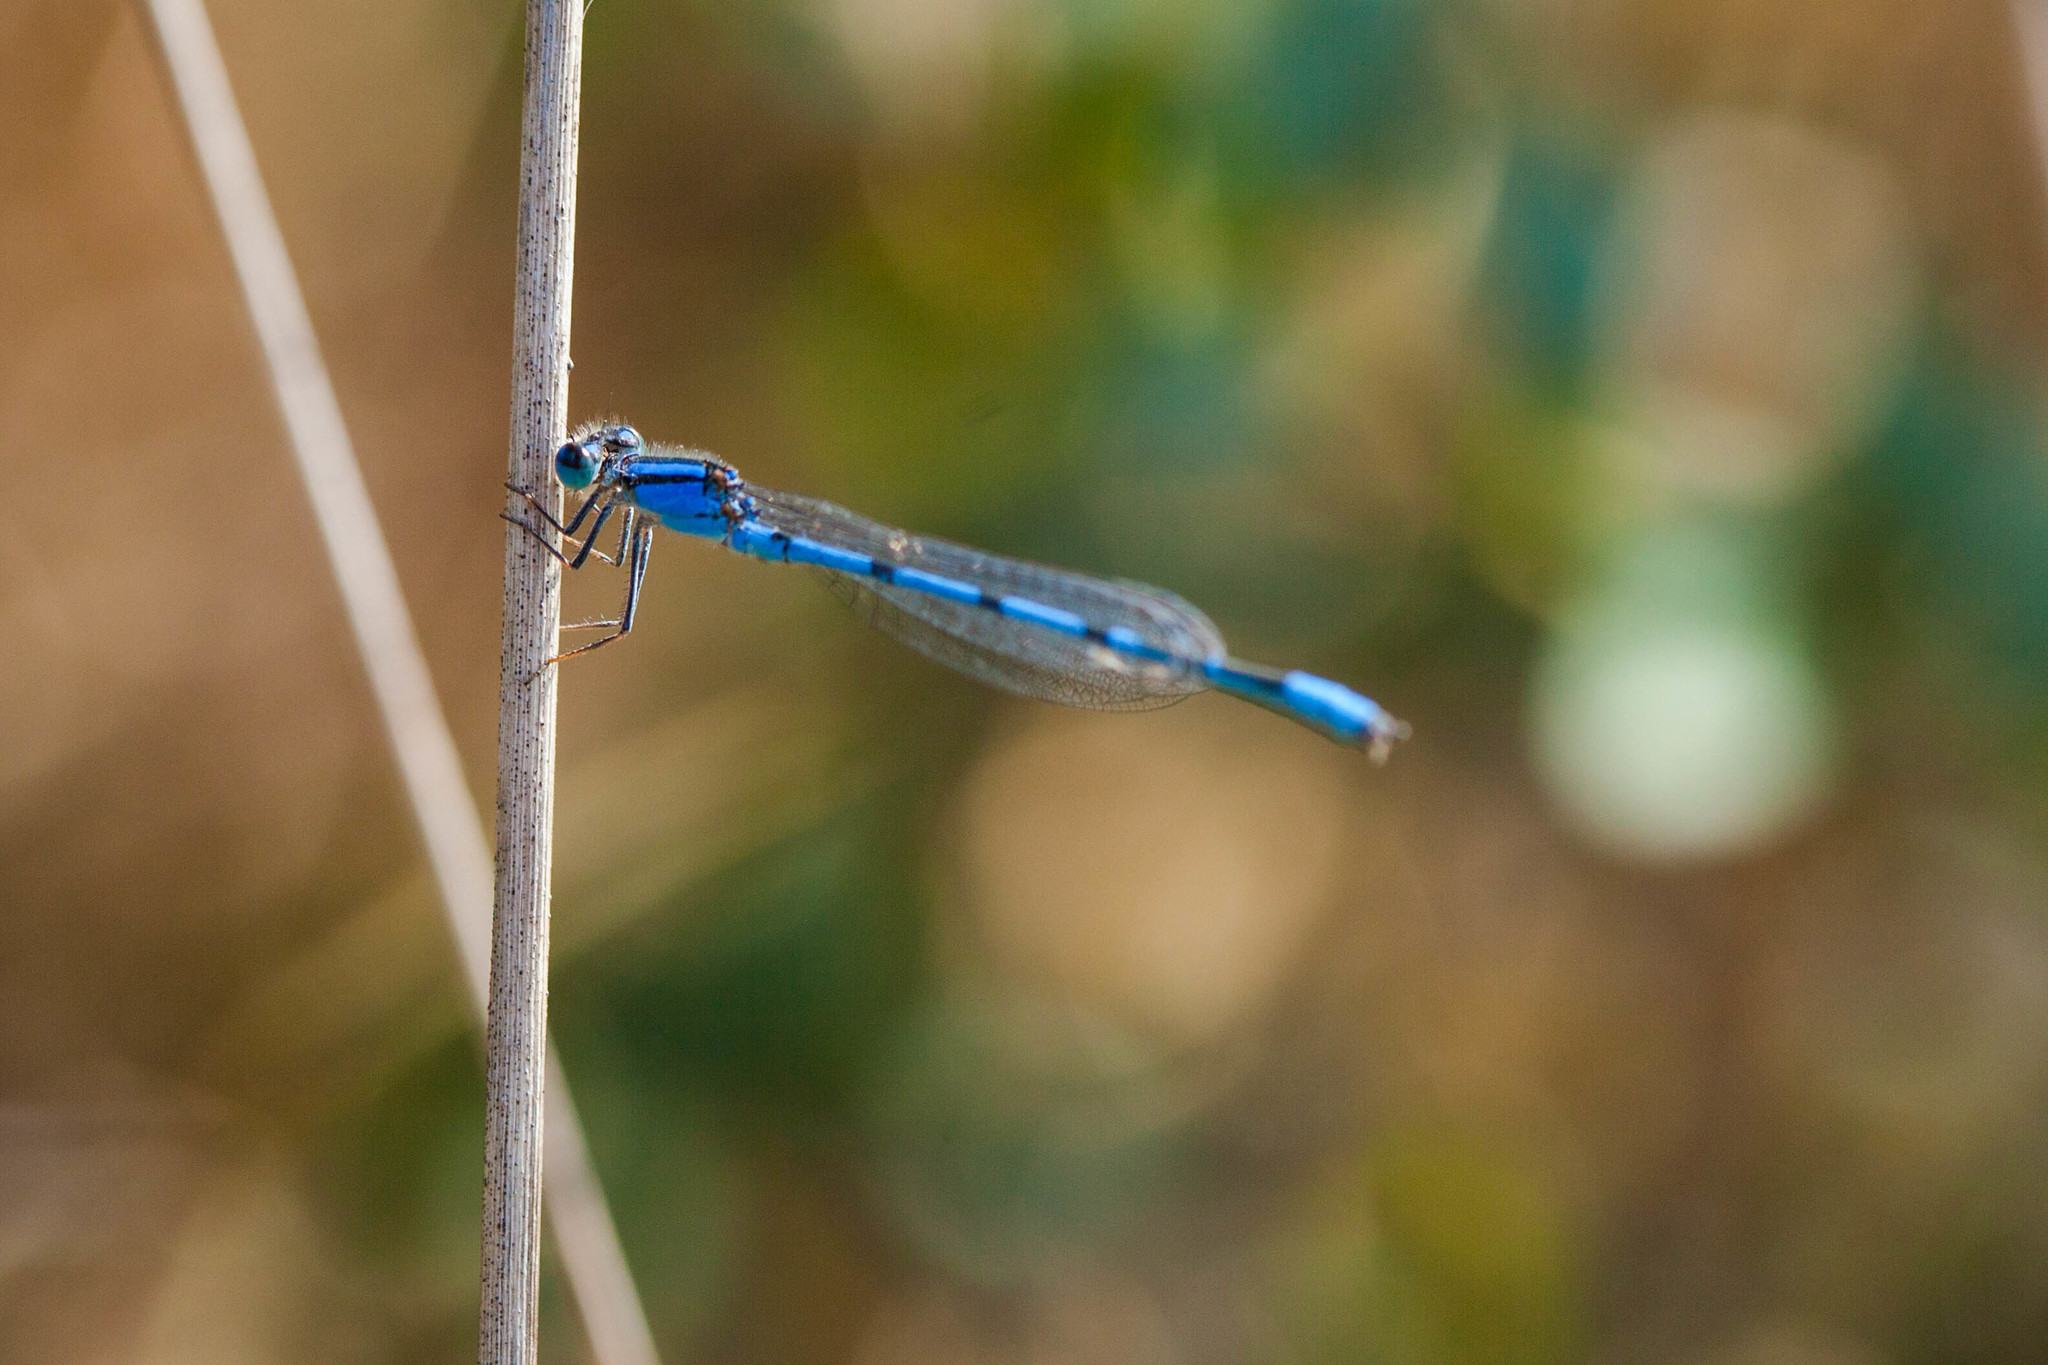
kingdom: Animalia
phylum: Arthropoda
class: Insecta
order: Odonata
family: Coenagrionidae
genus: Enallagma
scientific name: Enallagma civile
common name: Damselfly
